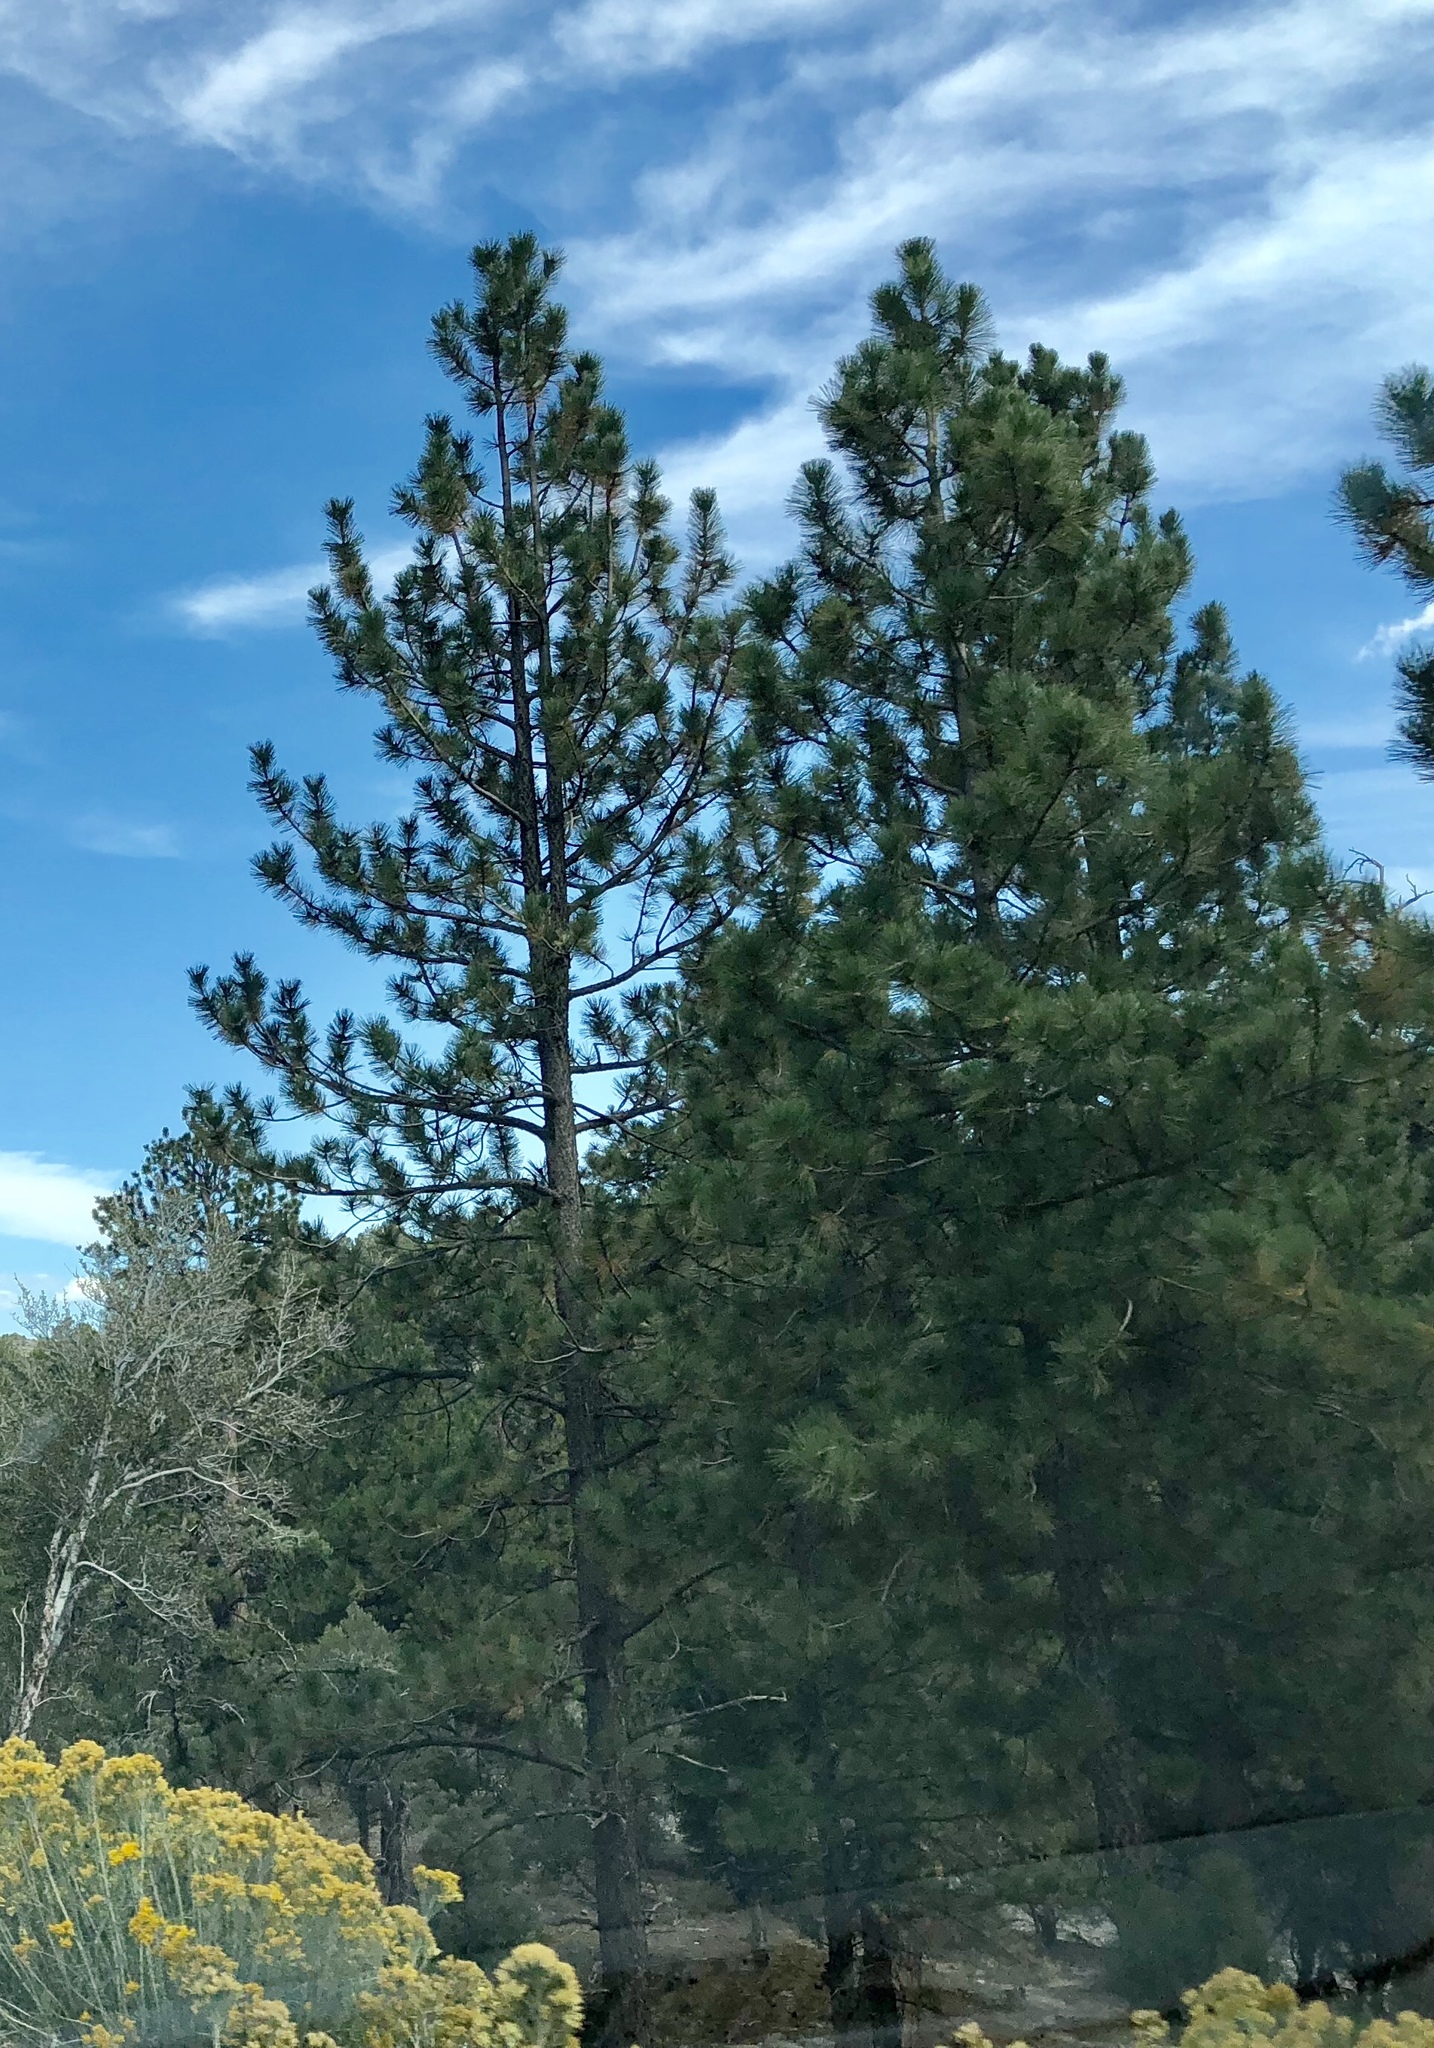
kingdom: Plantae
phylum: Tracheophyta
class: Pinopsida
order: Pinales
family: Pinaceae
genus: Pinus
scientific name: Pinus ponderosa
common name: Western yellow-pine
